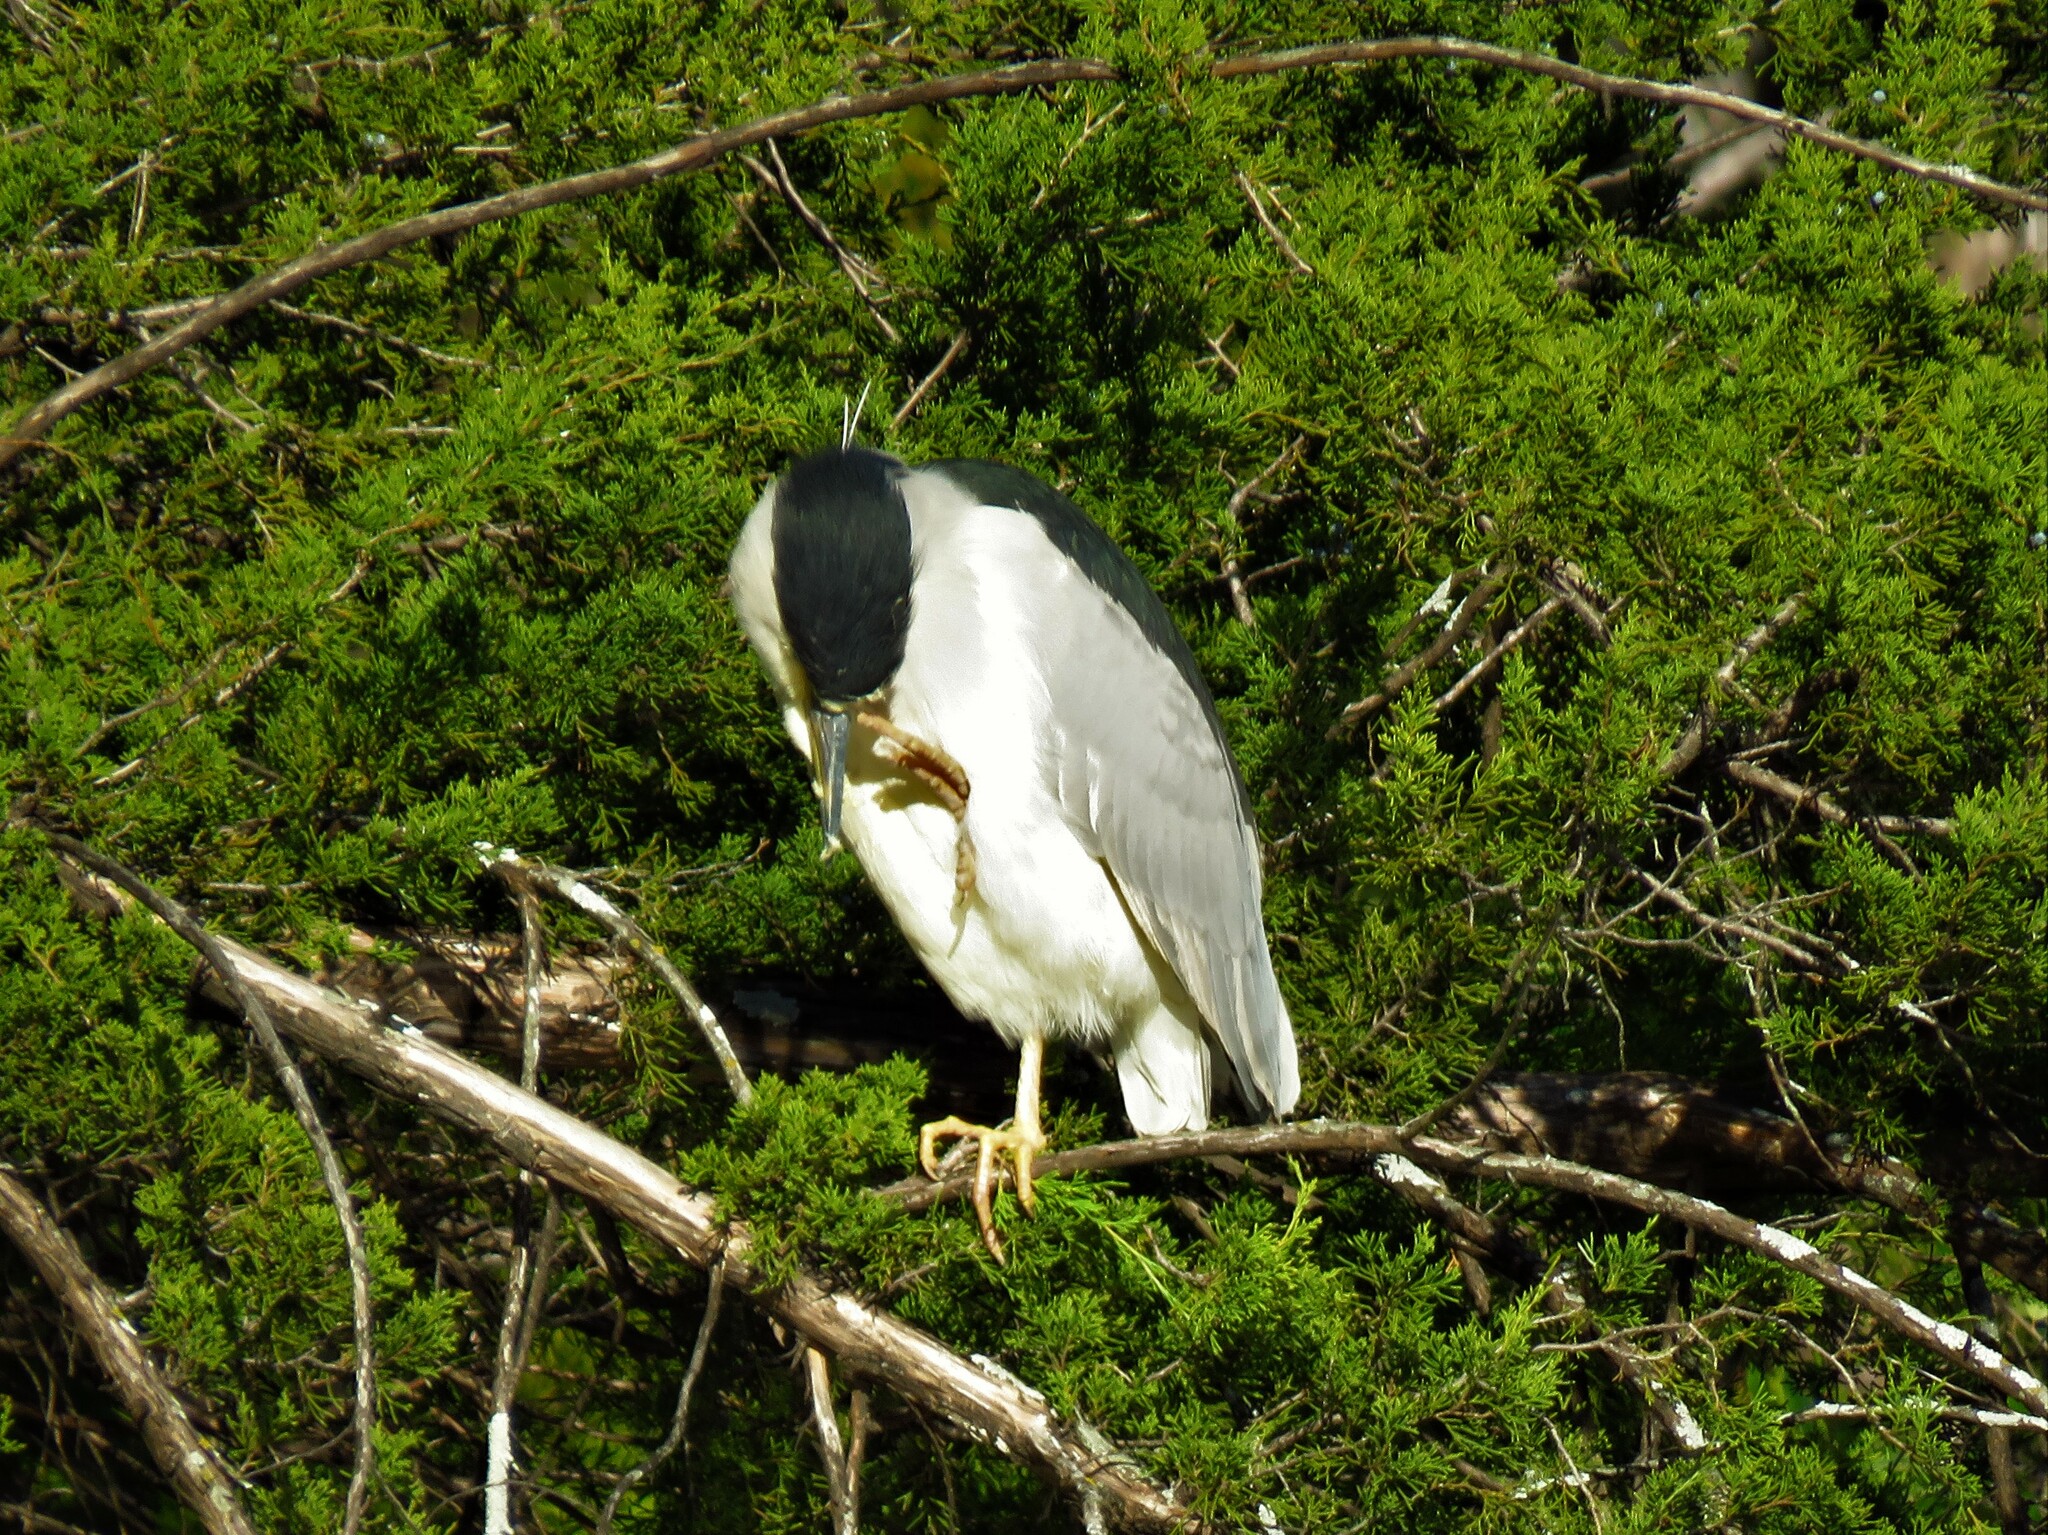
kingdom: Animalia
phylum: Chordata
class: Aves
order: Pelecaniformes
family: Ardeidae
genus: Nycticorax
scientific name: Nycticorax nycticorax
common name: Black-crowned night heron
